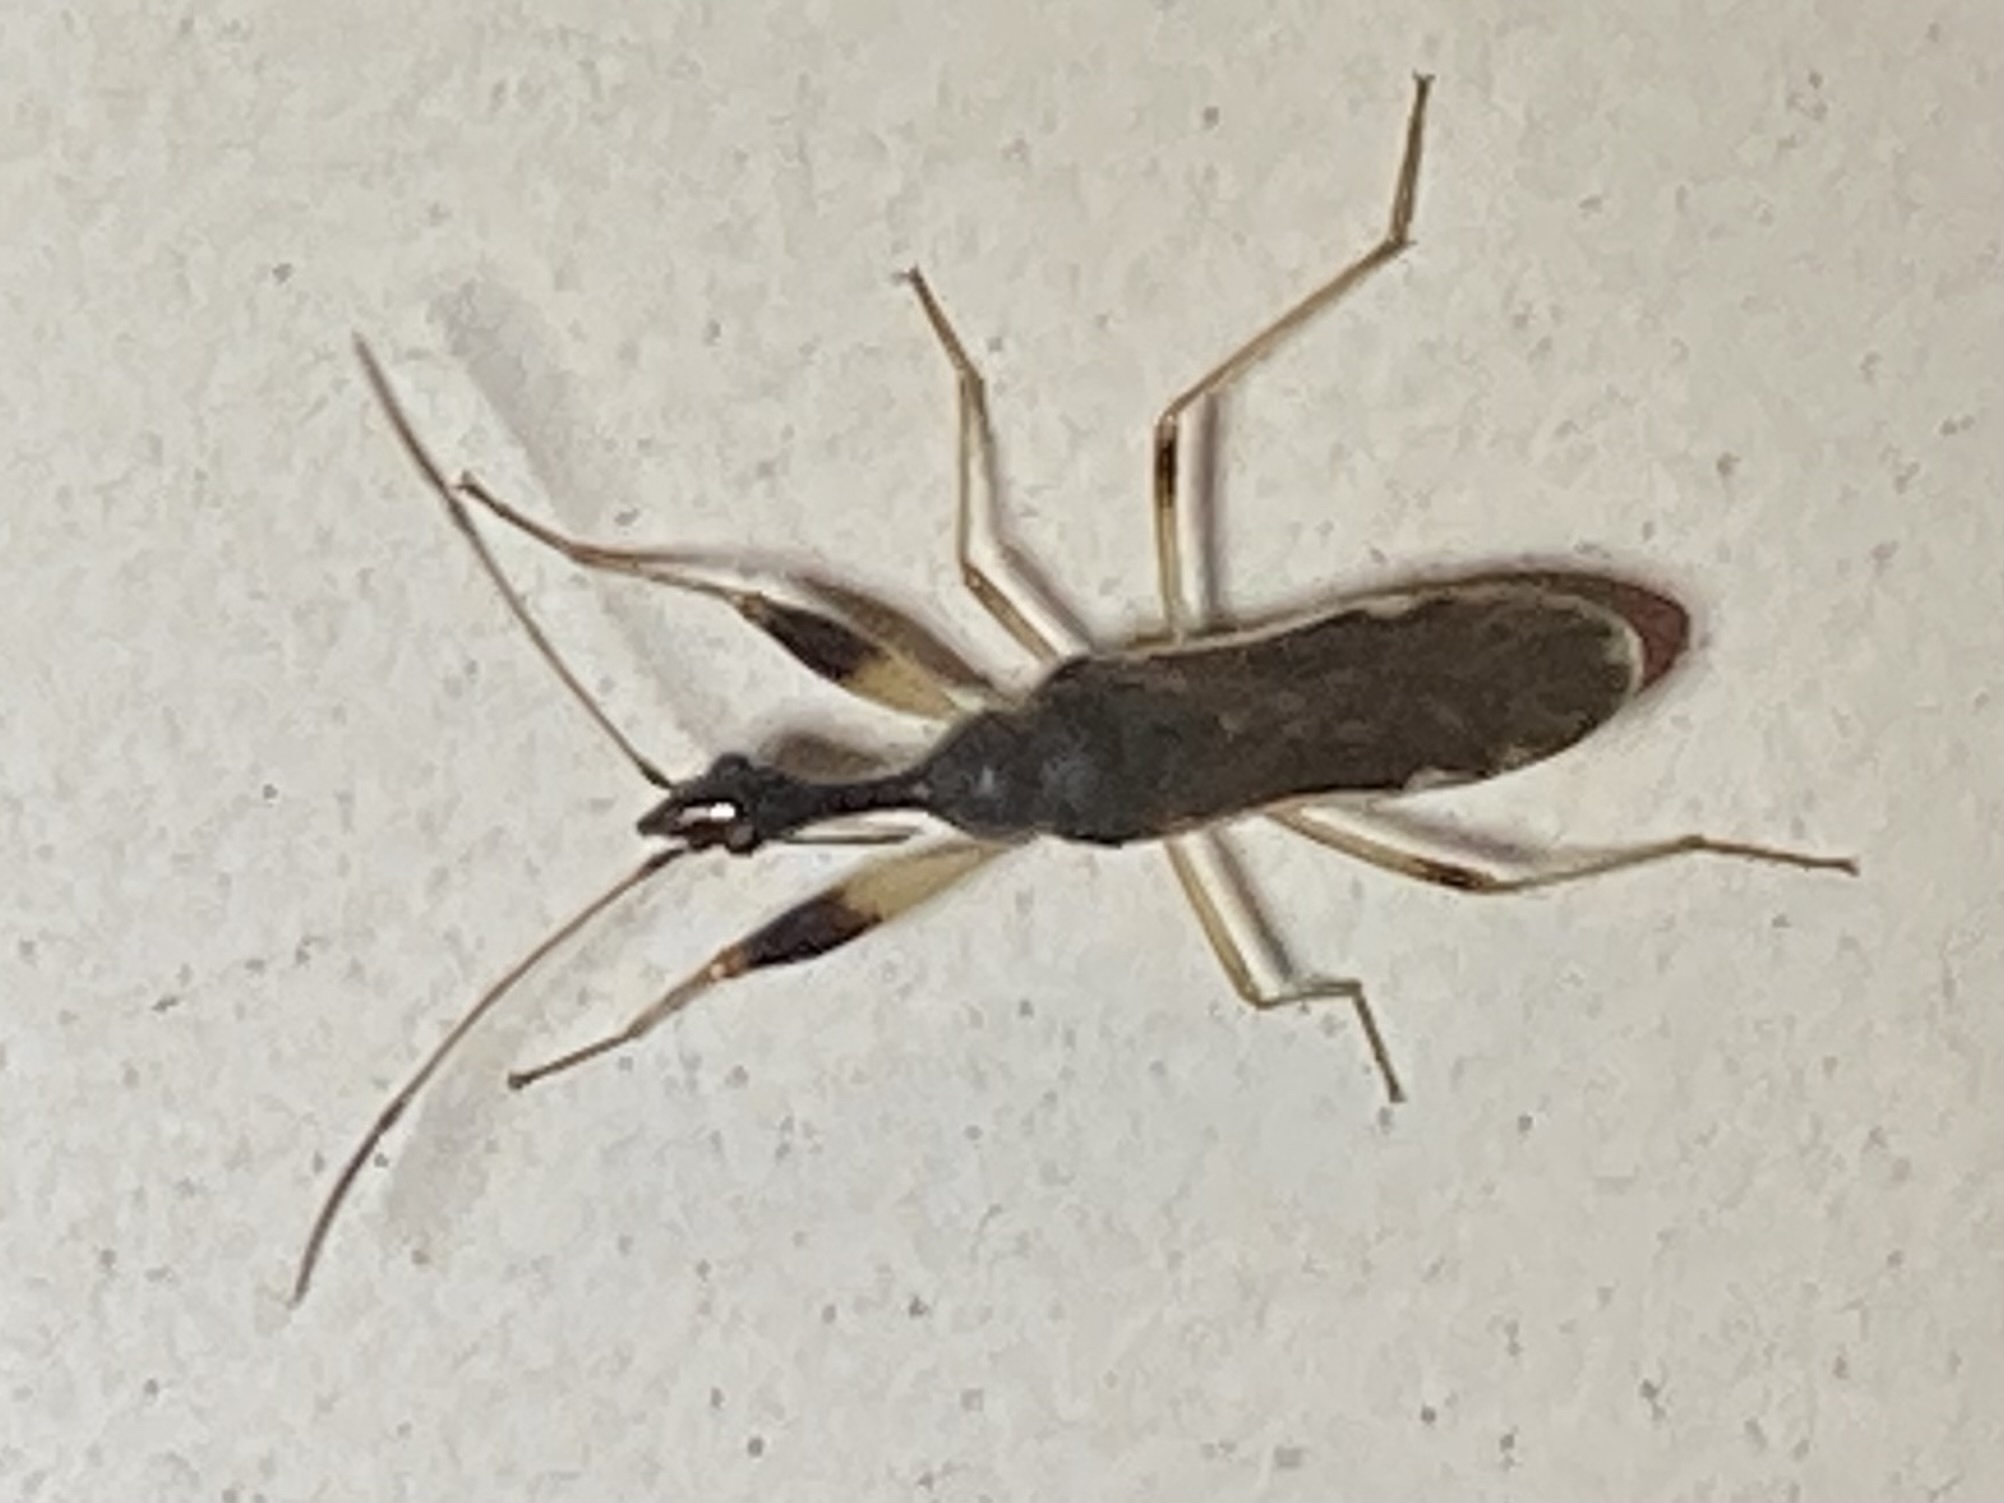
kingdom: Animalia
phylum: Arthropoda
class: Insecta
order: Hemiptera
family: Rhyparochromidae
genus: Myodocha
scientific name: Myodocha serripes
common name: Long-necked seed bug
